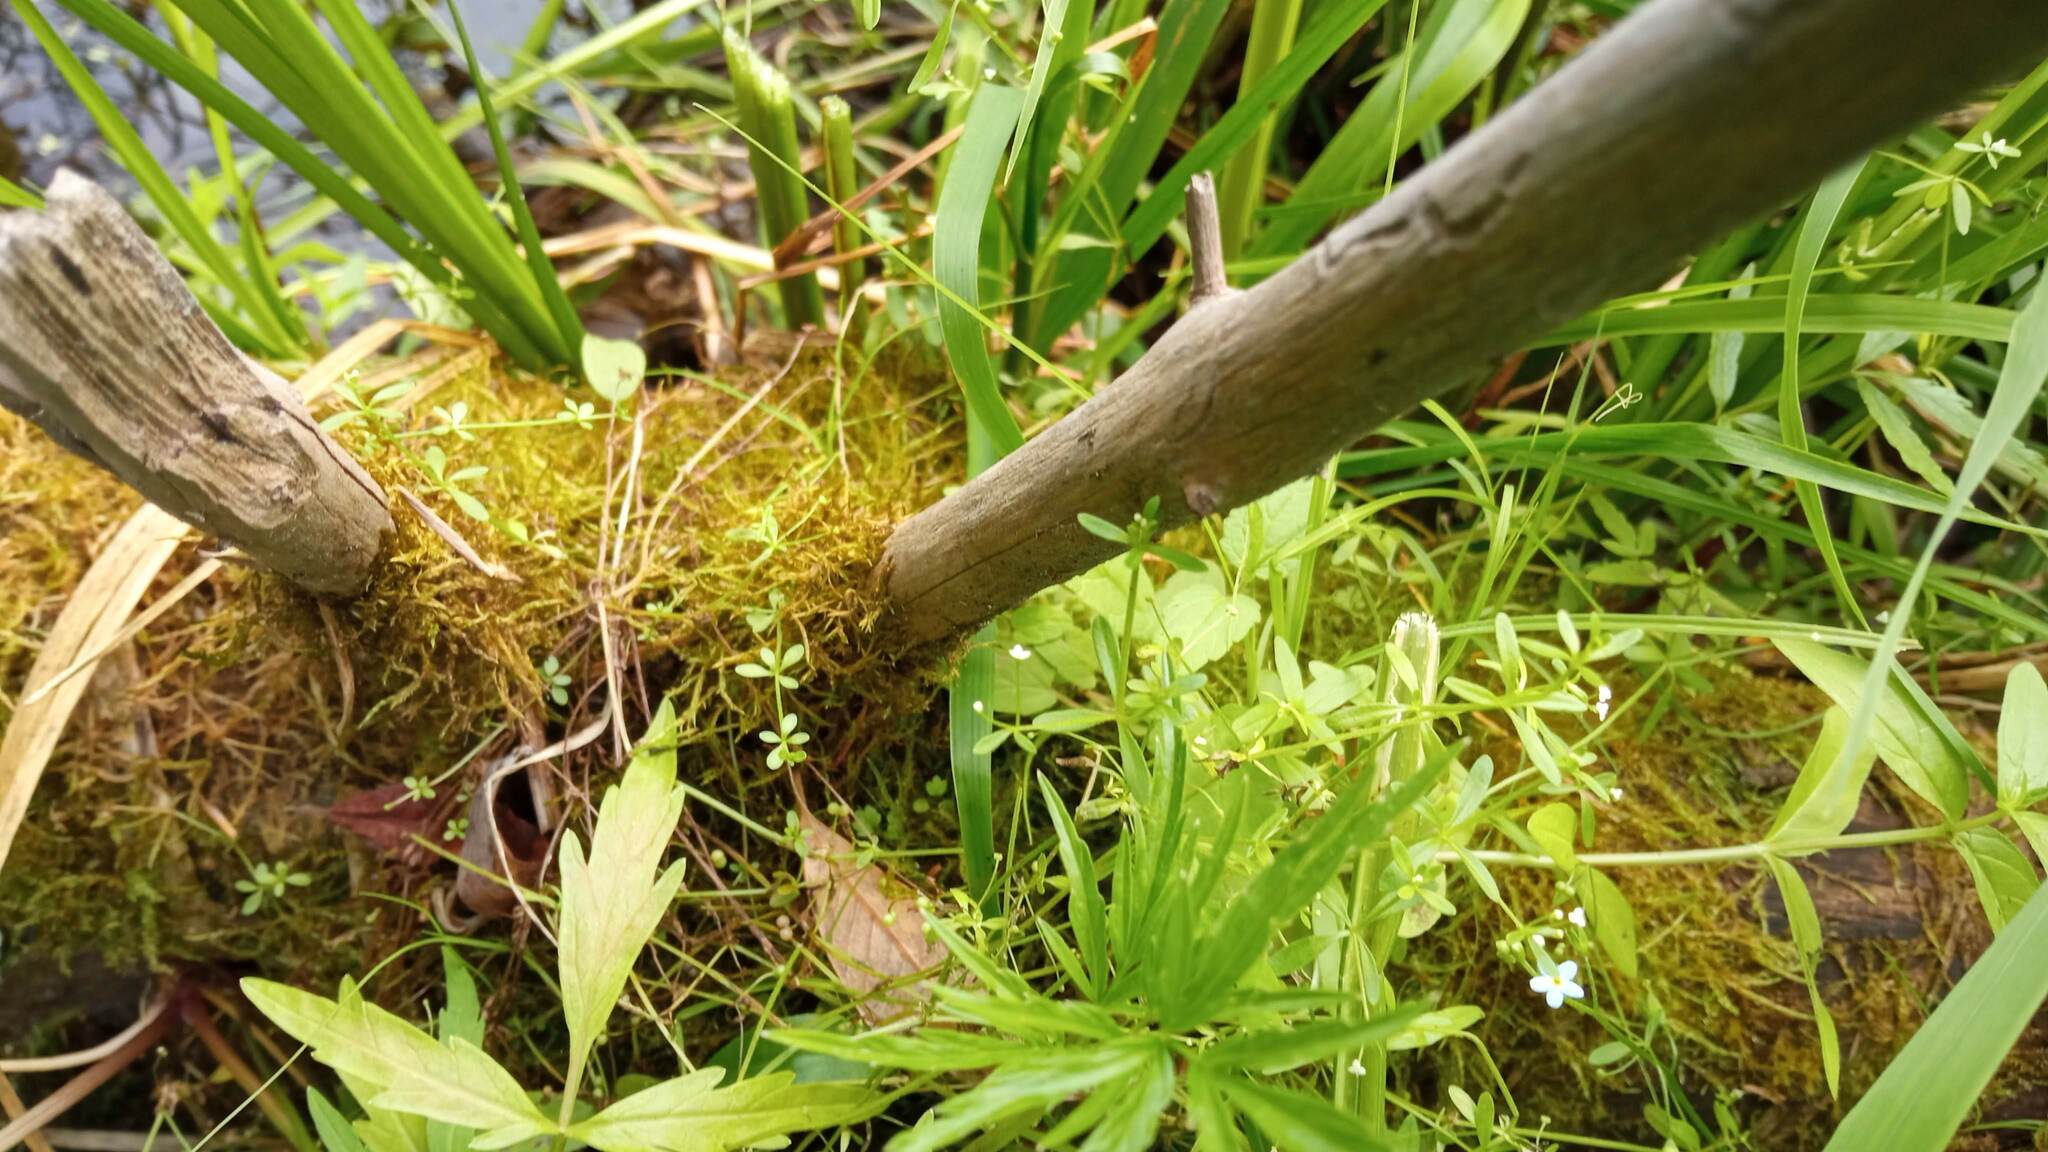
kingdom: Plantae
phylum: Tracheophyta
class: Magnoliopsida
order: Gentianales
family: Rubiaceae
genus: Galium
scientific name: Galium palustre
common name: Common marsh-bedstraw
